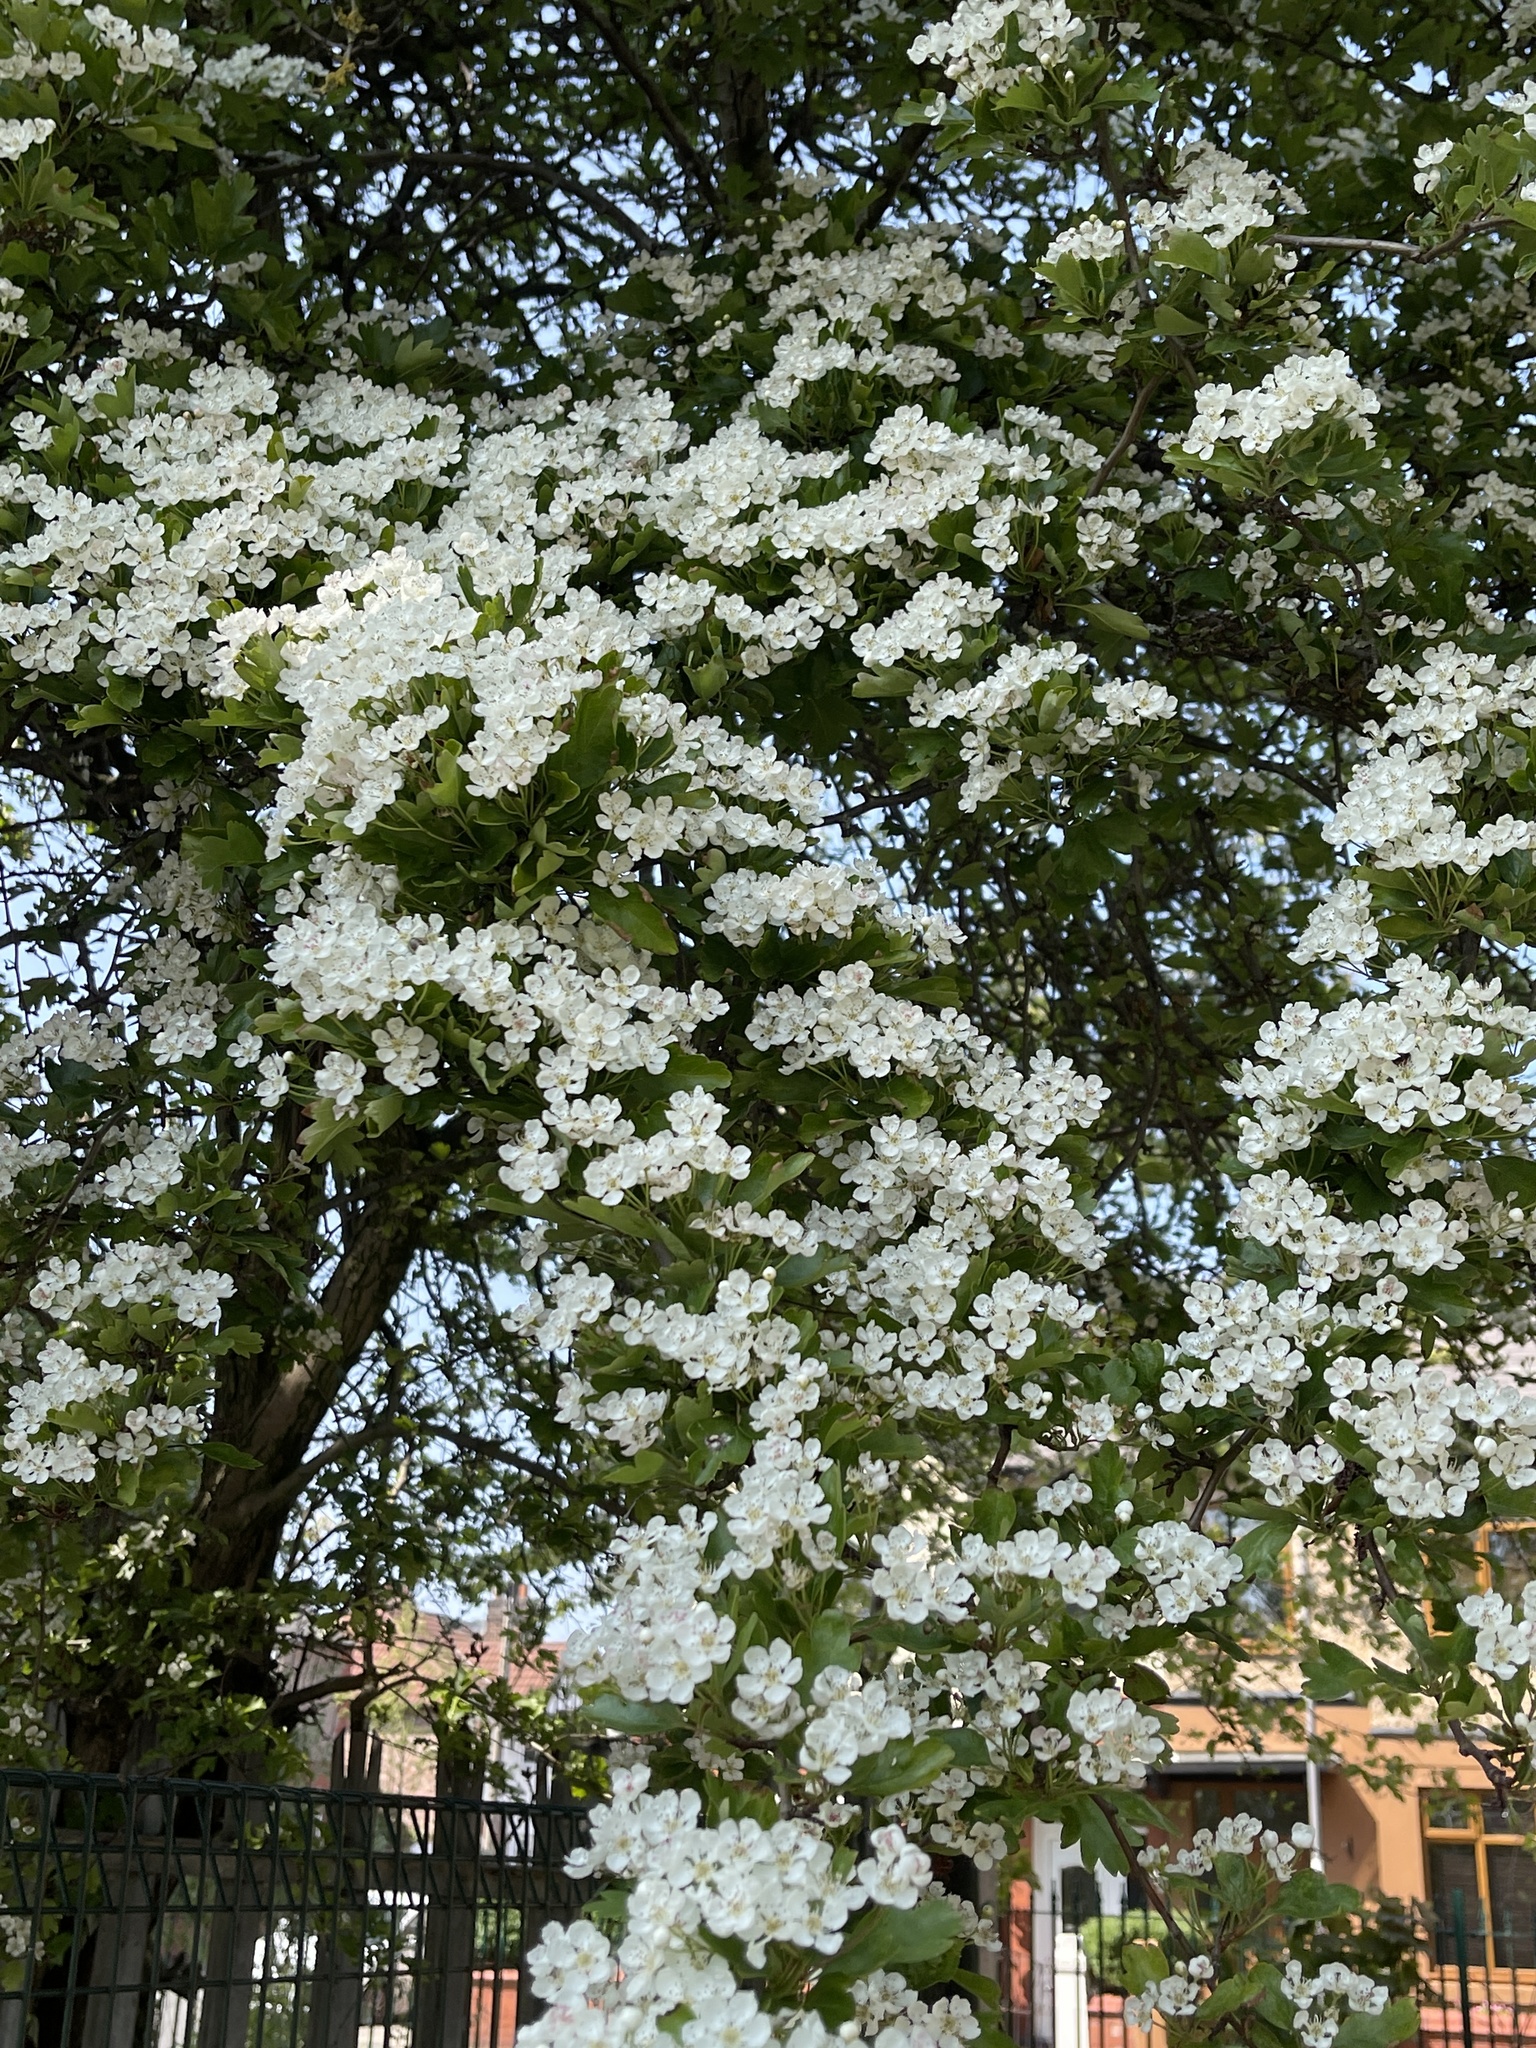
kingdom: Plantae
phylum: Tracheophyta
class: Magnoliopsida
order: Rosales
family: Rosaceae
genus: Crataegus
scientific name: Crataegus monogyna
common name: Hawthorn
